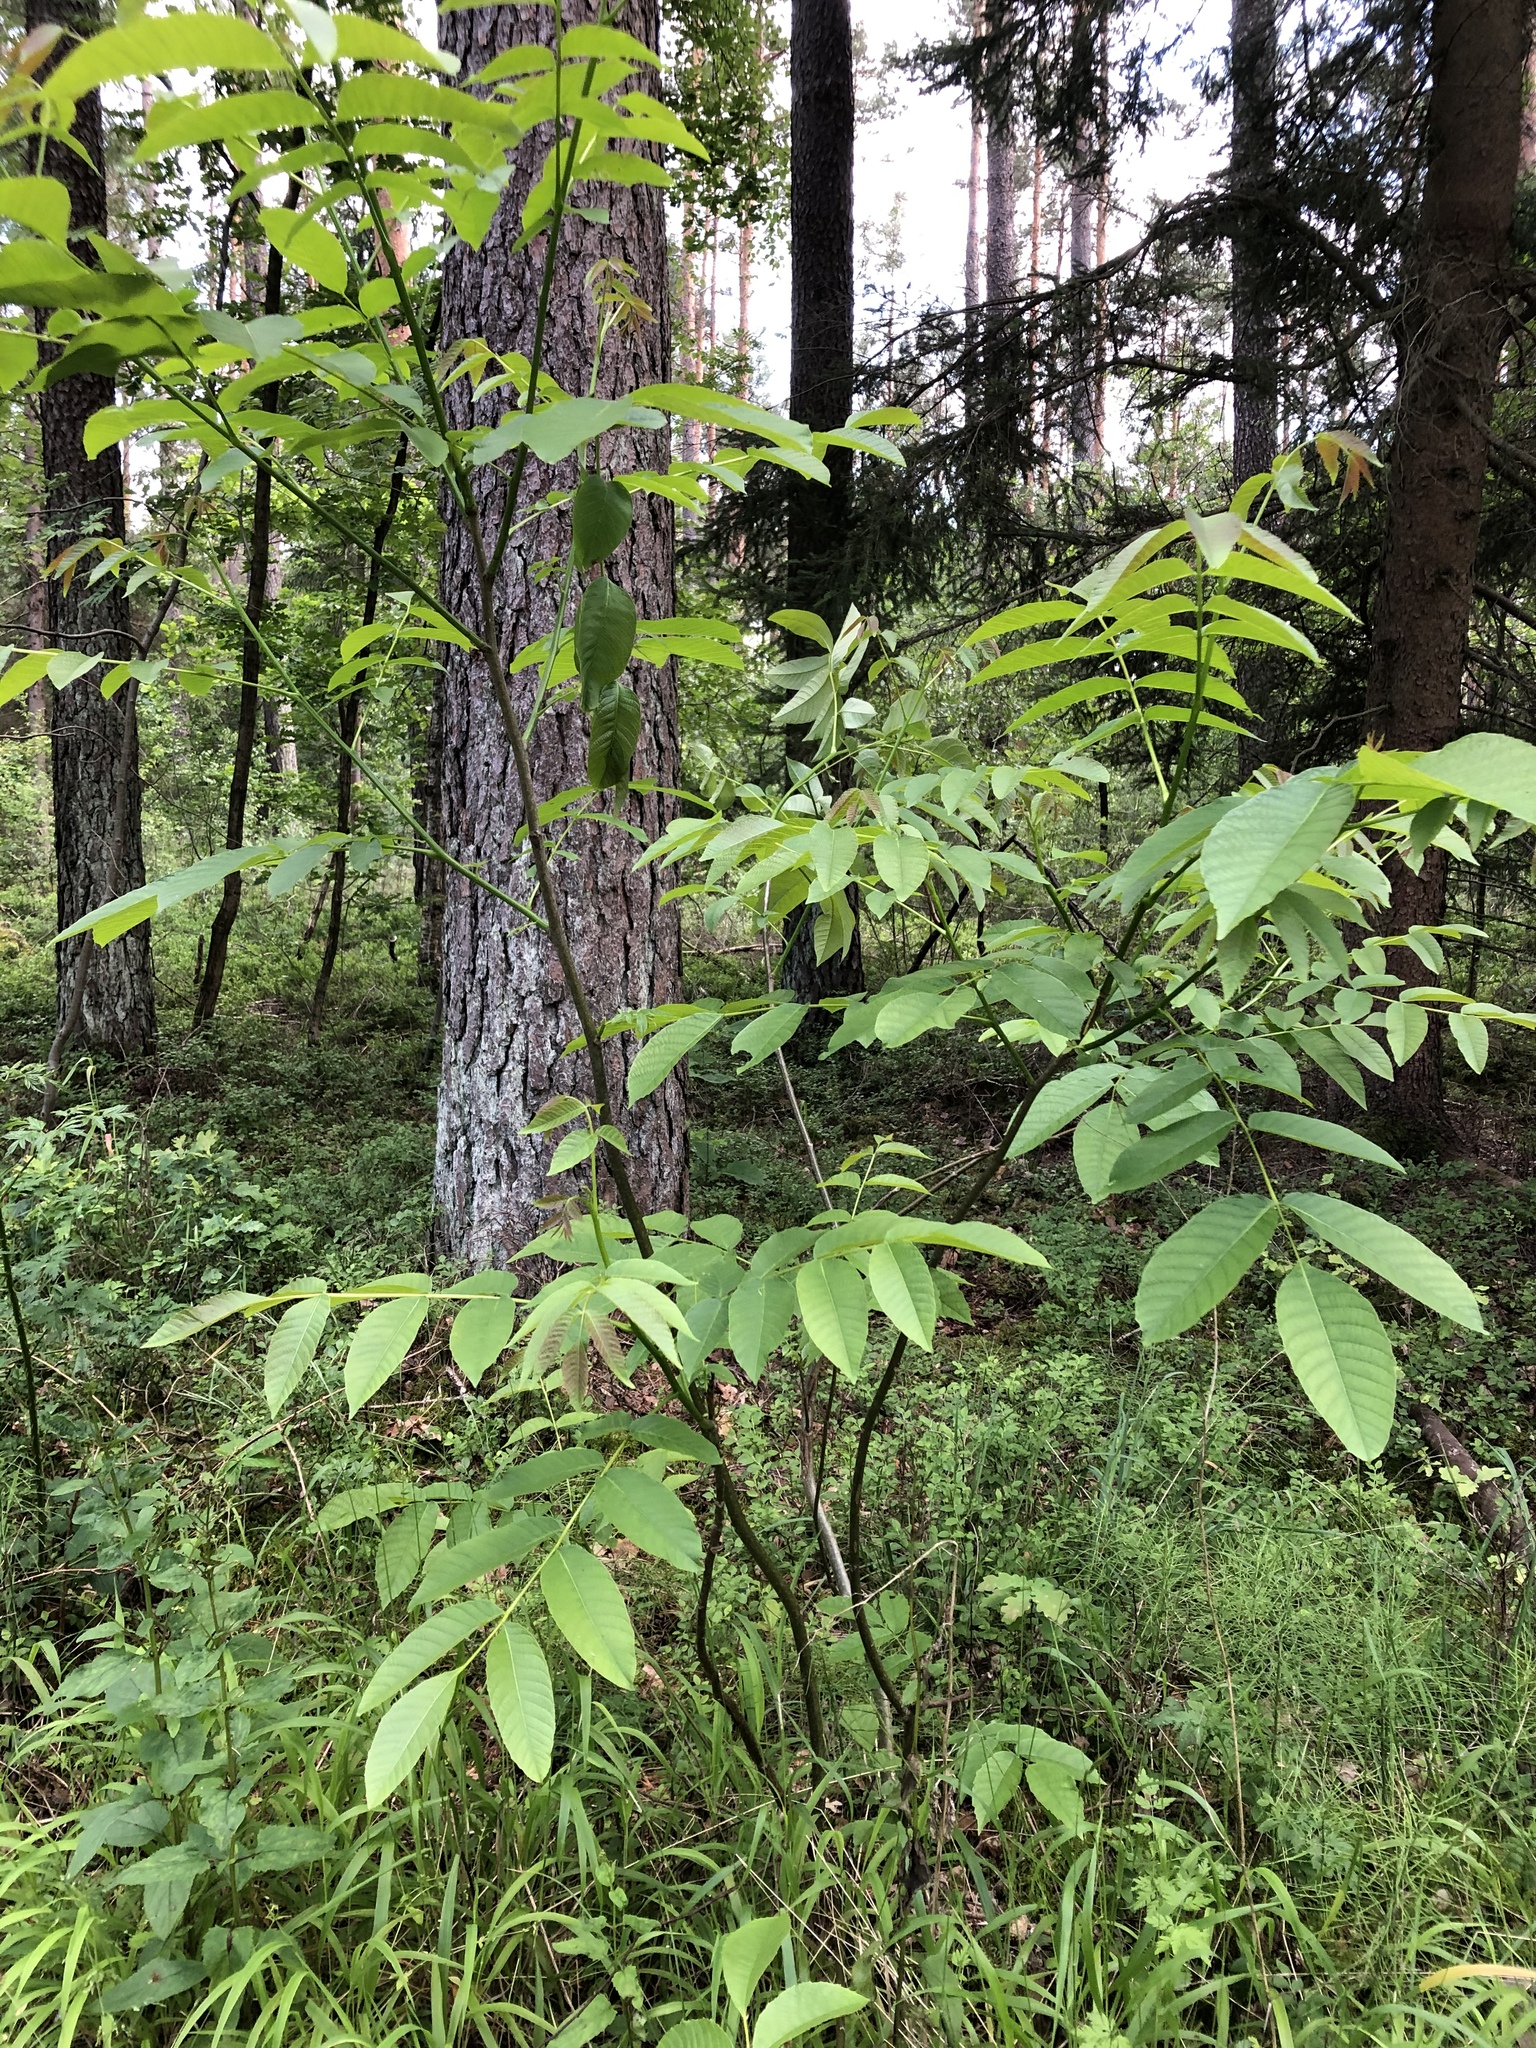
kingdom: Plantae
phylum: Tracheophyta
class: Magnoliopsida
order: Fagales
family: Juglandaceae
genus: Juglans
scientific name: Juglans regia
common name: Walnut
